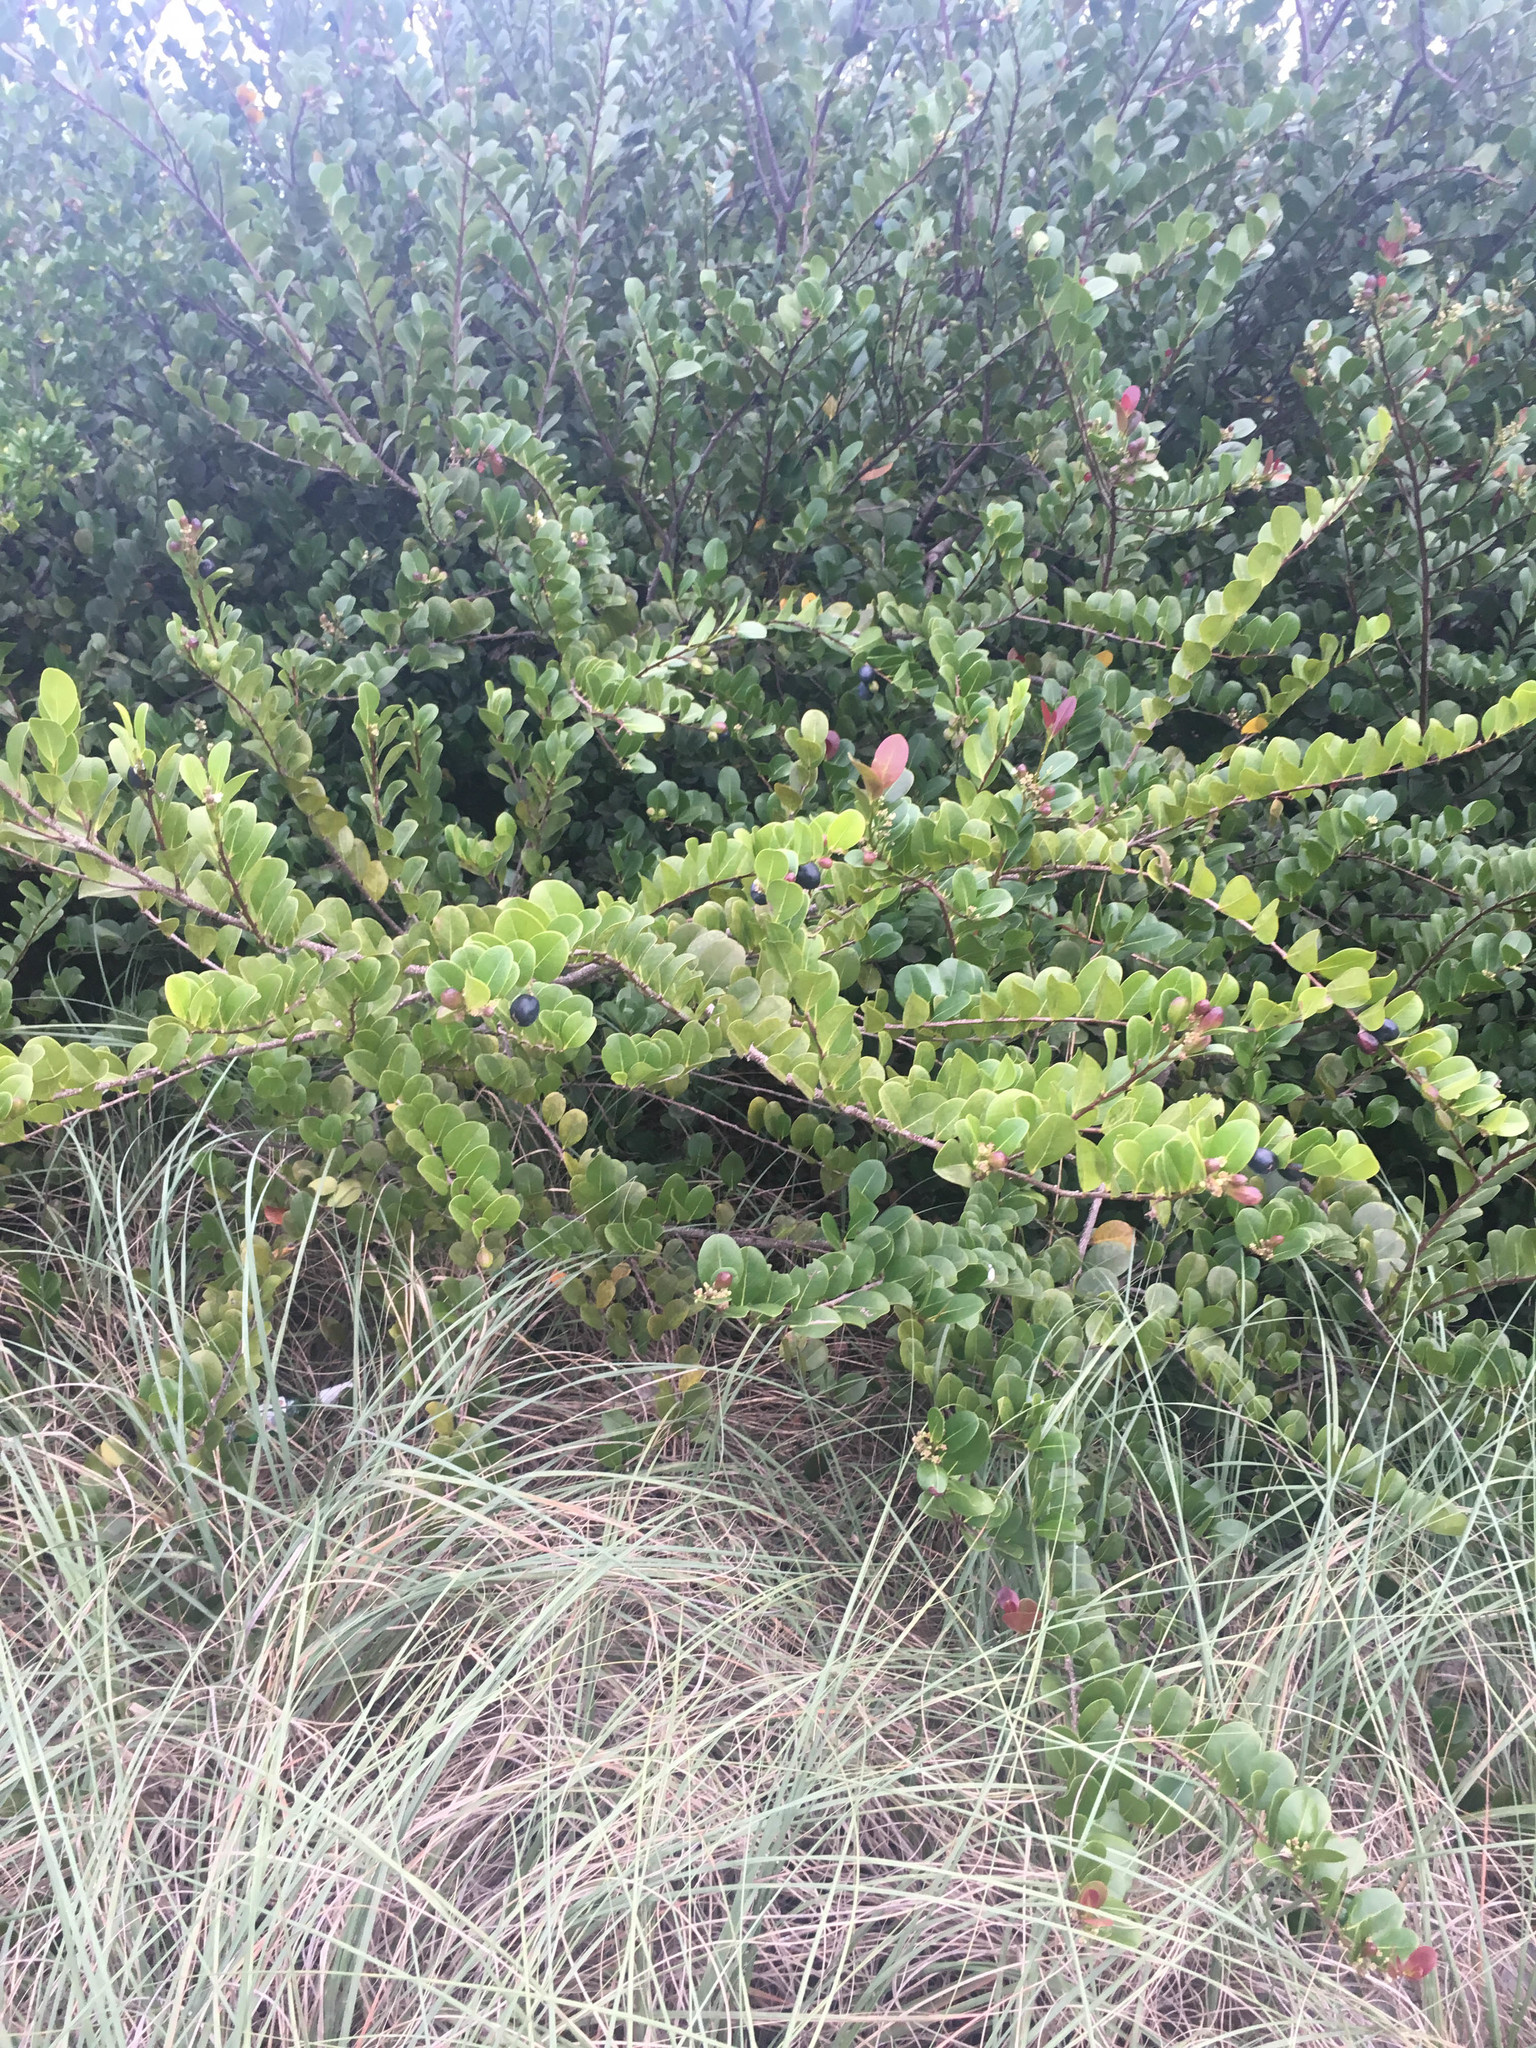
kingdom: Plantae
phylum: Tracheophyta
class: Magnoliopsida
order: Malpighiales
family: Chrysobalanaceae
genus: Chrysobalanus
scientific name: Chrysobalanus icaco
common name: Coco plum
